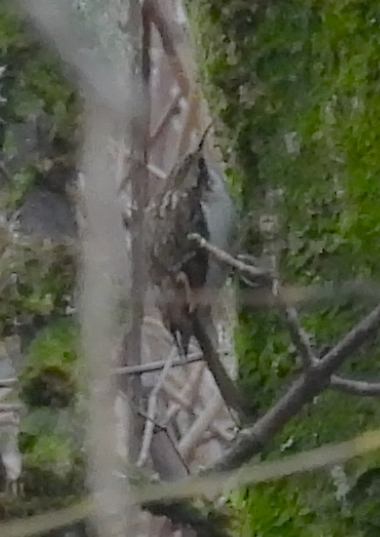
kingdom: Animalia
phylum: Chordata
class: Aves
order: Passeriformes
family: Certhiidae
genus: Certhia
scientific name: Certhia familiaris
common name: Eurasian treecreeper
